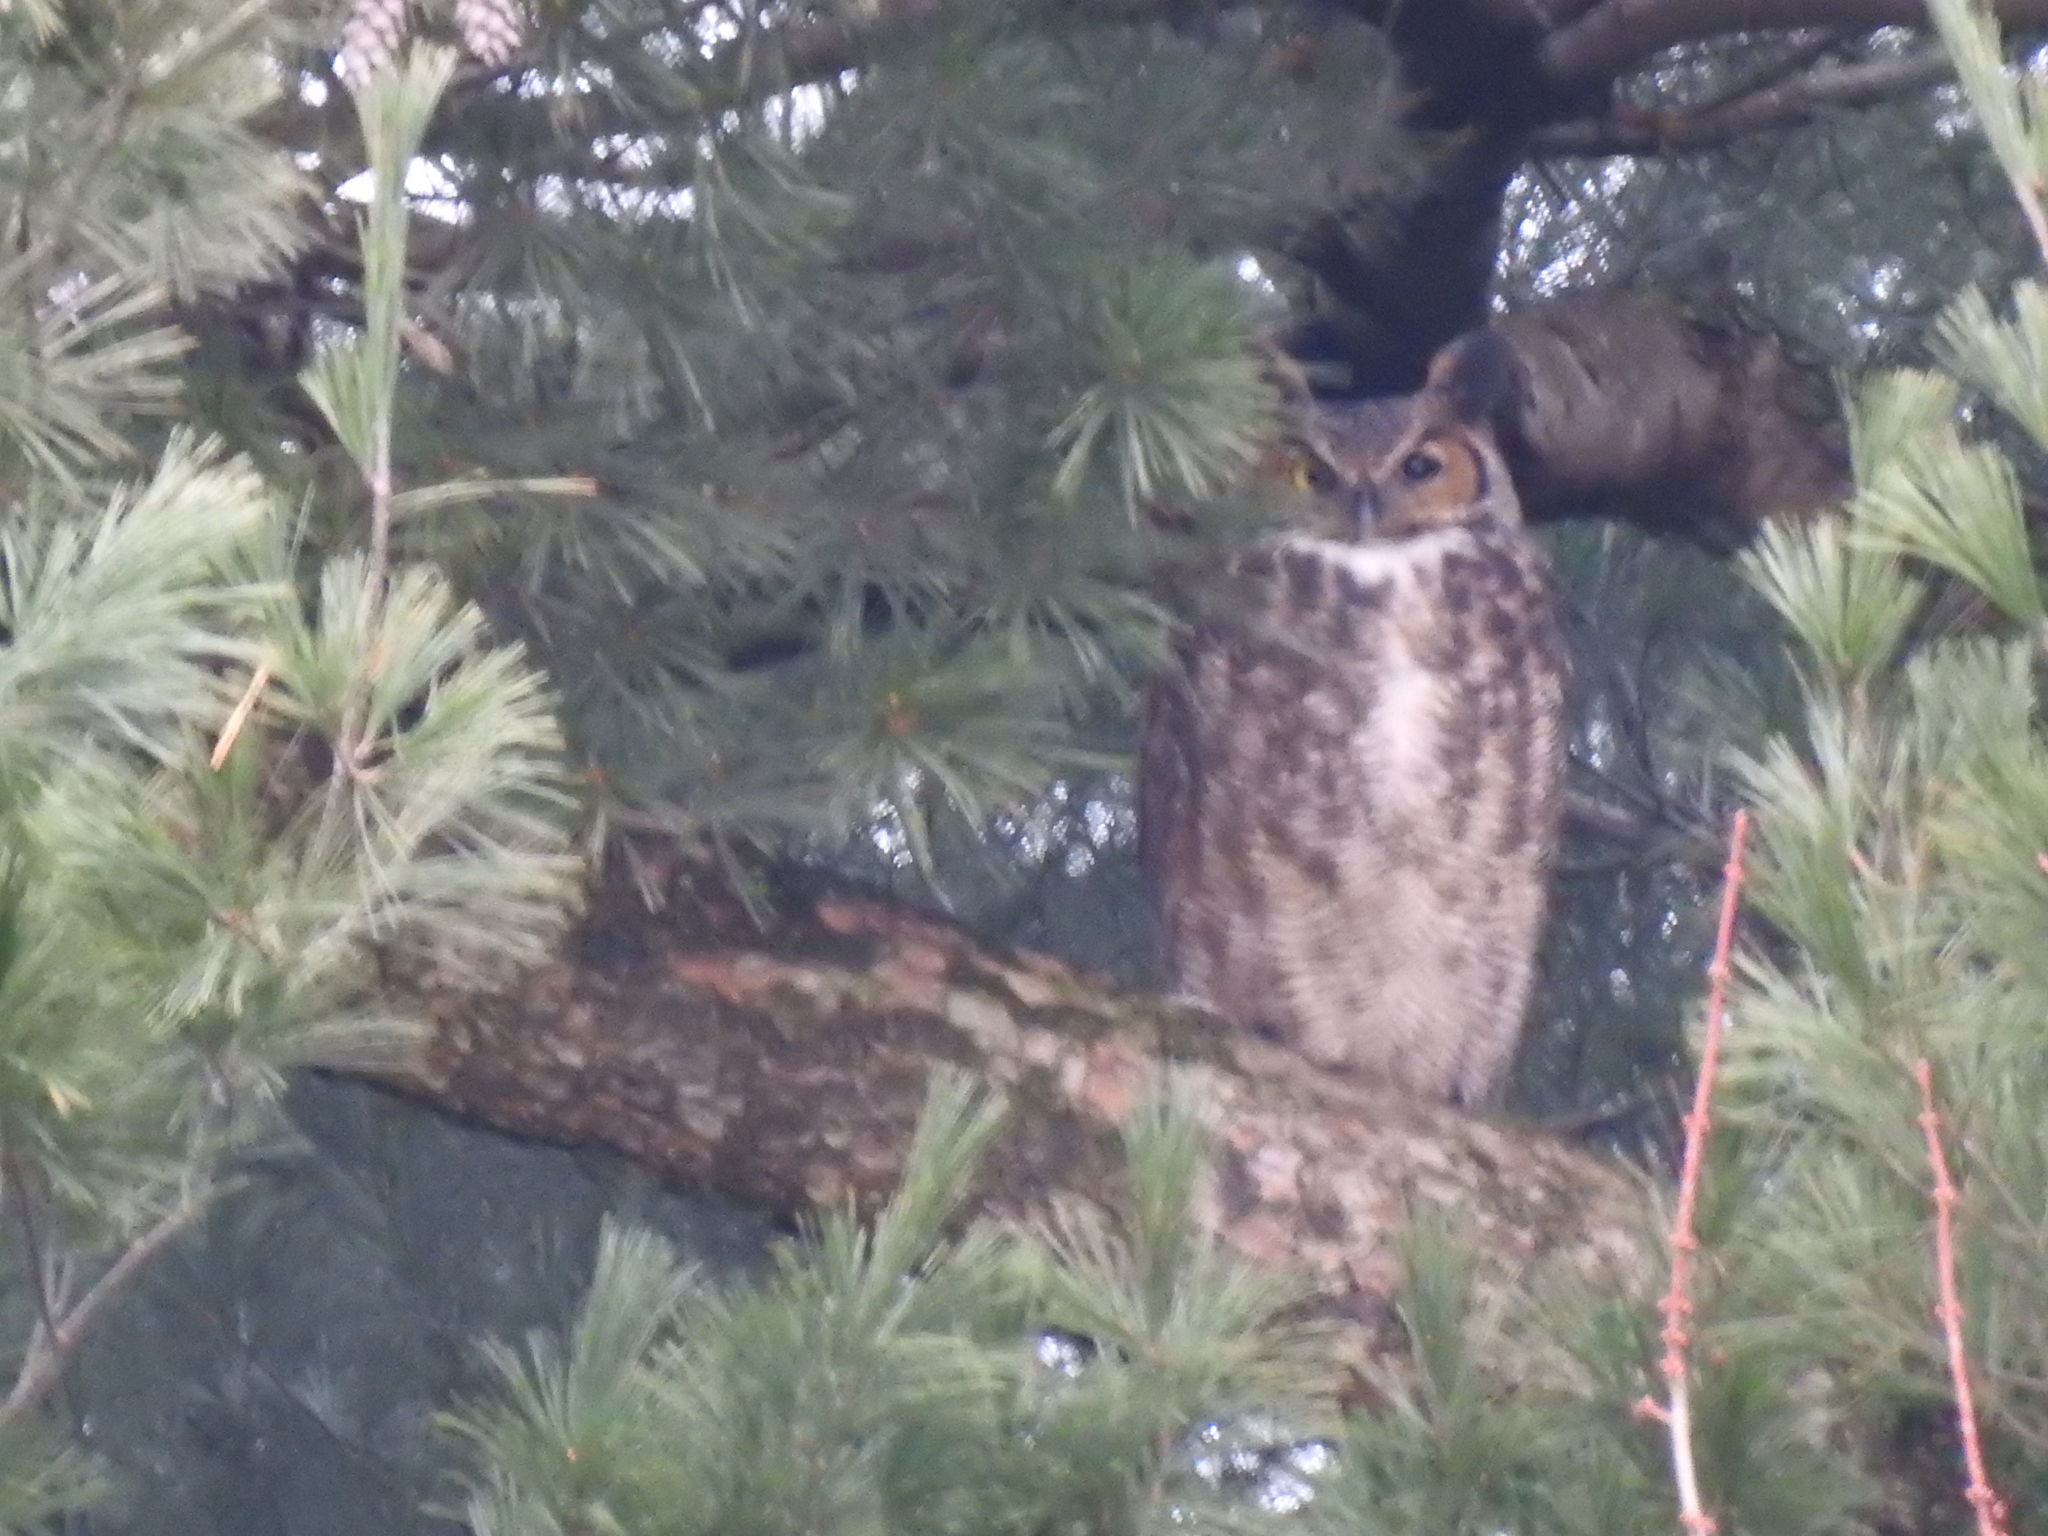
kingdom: Animalia
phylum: Chordata
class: Aves
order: Strigiformes
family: Strigidae
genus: Bubo
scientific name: Bubo virginianus
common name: Great horned owl
